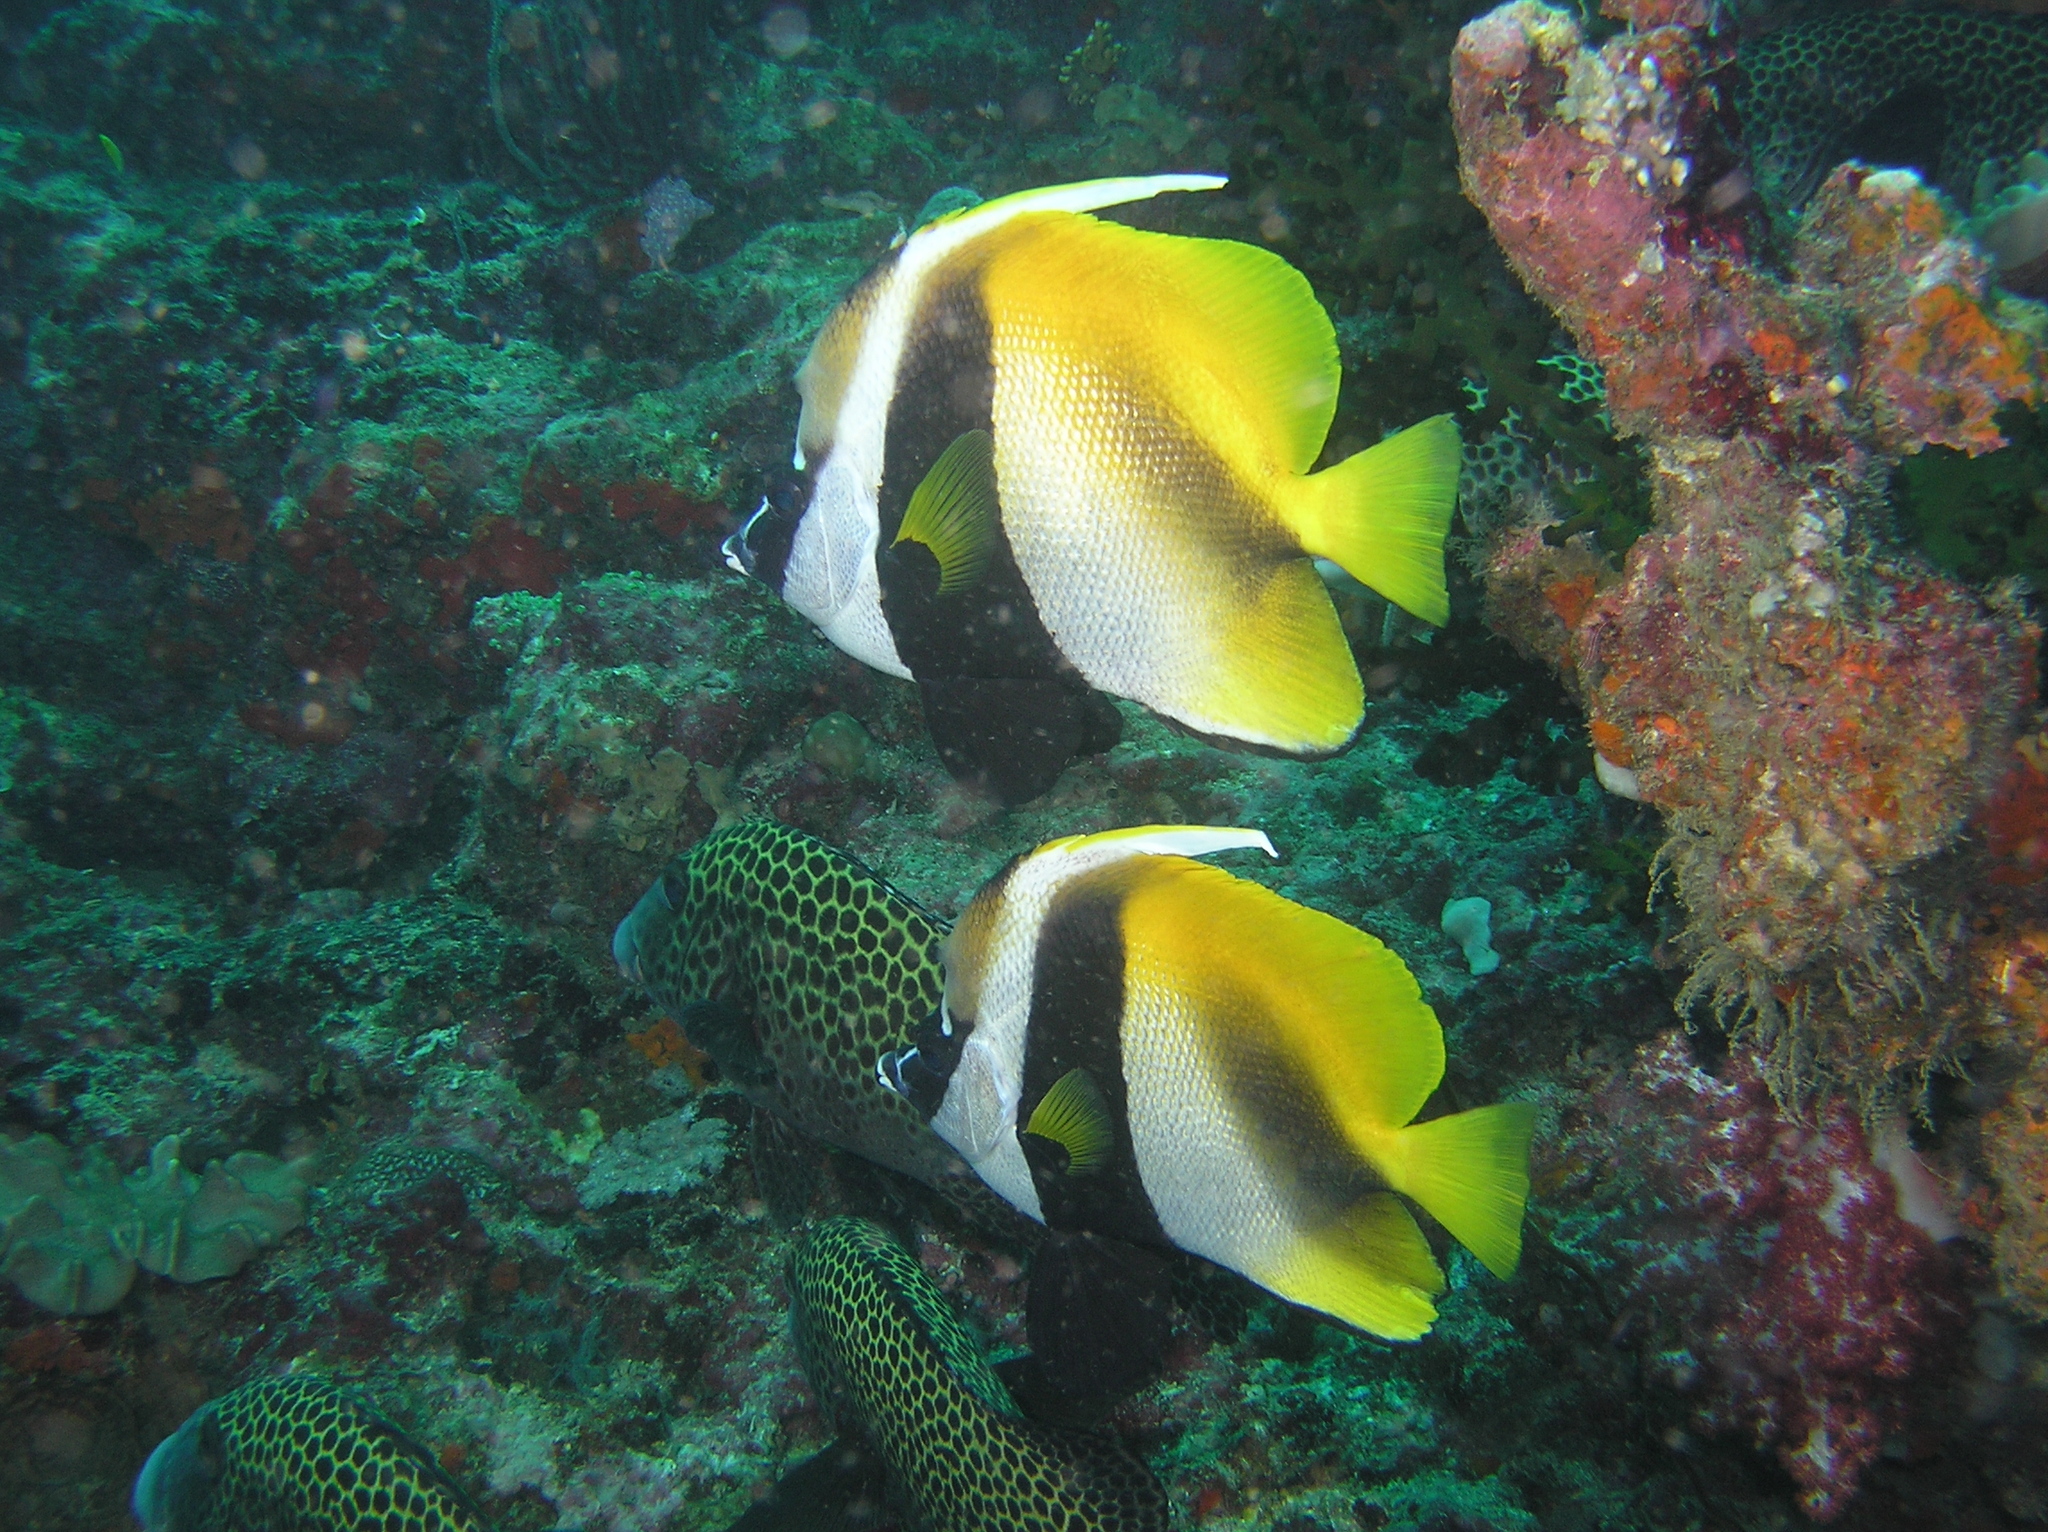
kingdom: Animalia
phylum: Chordata
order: Perciformes
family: Chaetodontidae
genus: Heniochus
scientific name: Heniochus monoceros
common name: Masked bannerfish
